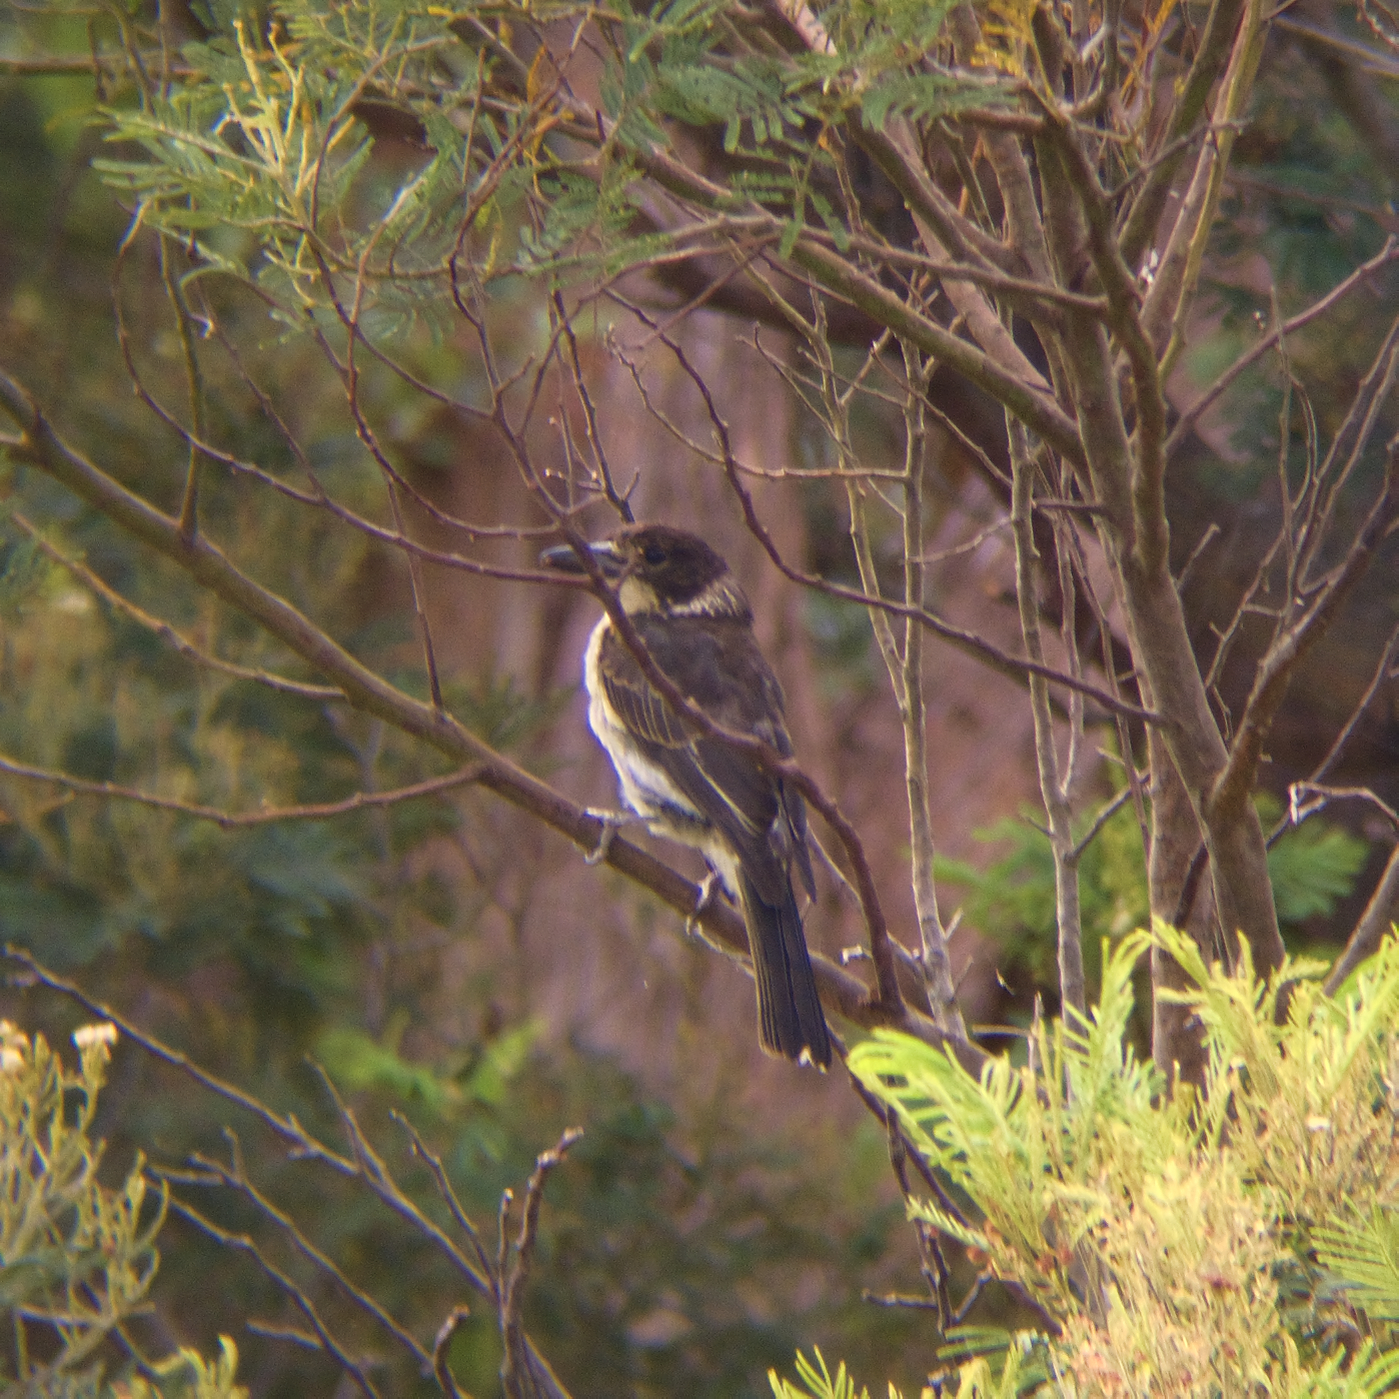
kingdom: Animalia
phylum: Chordata
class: Aves
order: Passeriformes
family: Cracticidae
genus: Cracticus
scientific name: Cracticus torquatus
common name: Grey butcherbird
